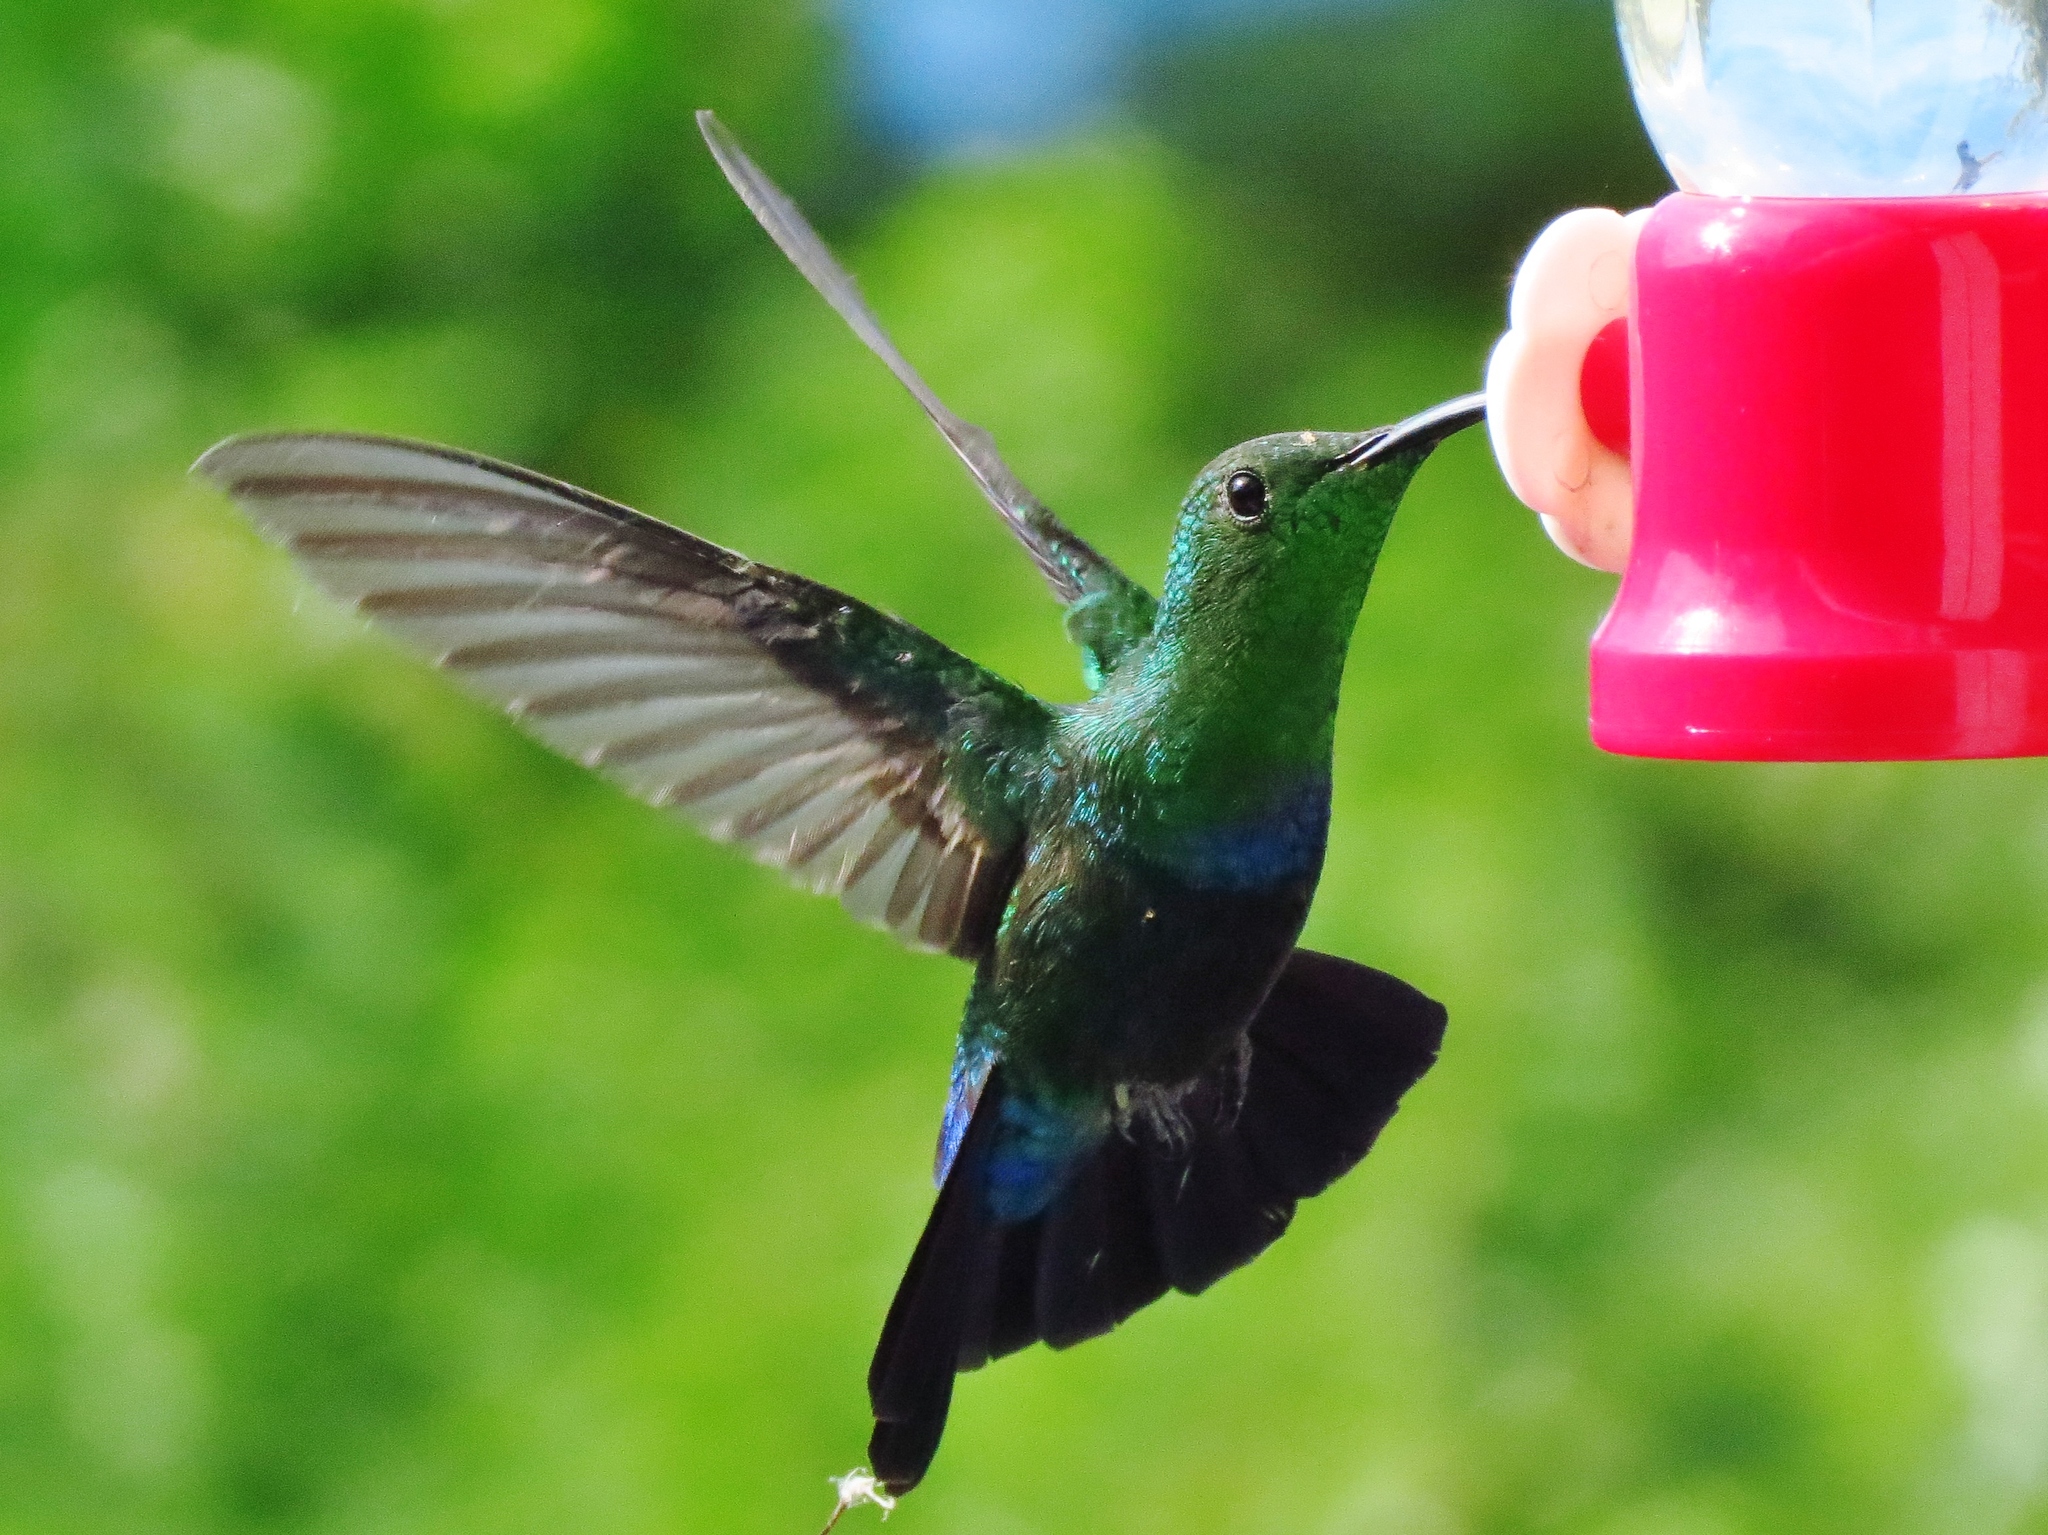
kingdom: Animalia
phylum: Chordata
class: Aves
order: Apodiformes
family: Trochilidae
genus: Eulampis
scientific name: Eulampis holosericeus
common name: Green-throated carib
